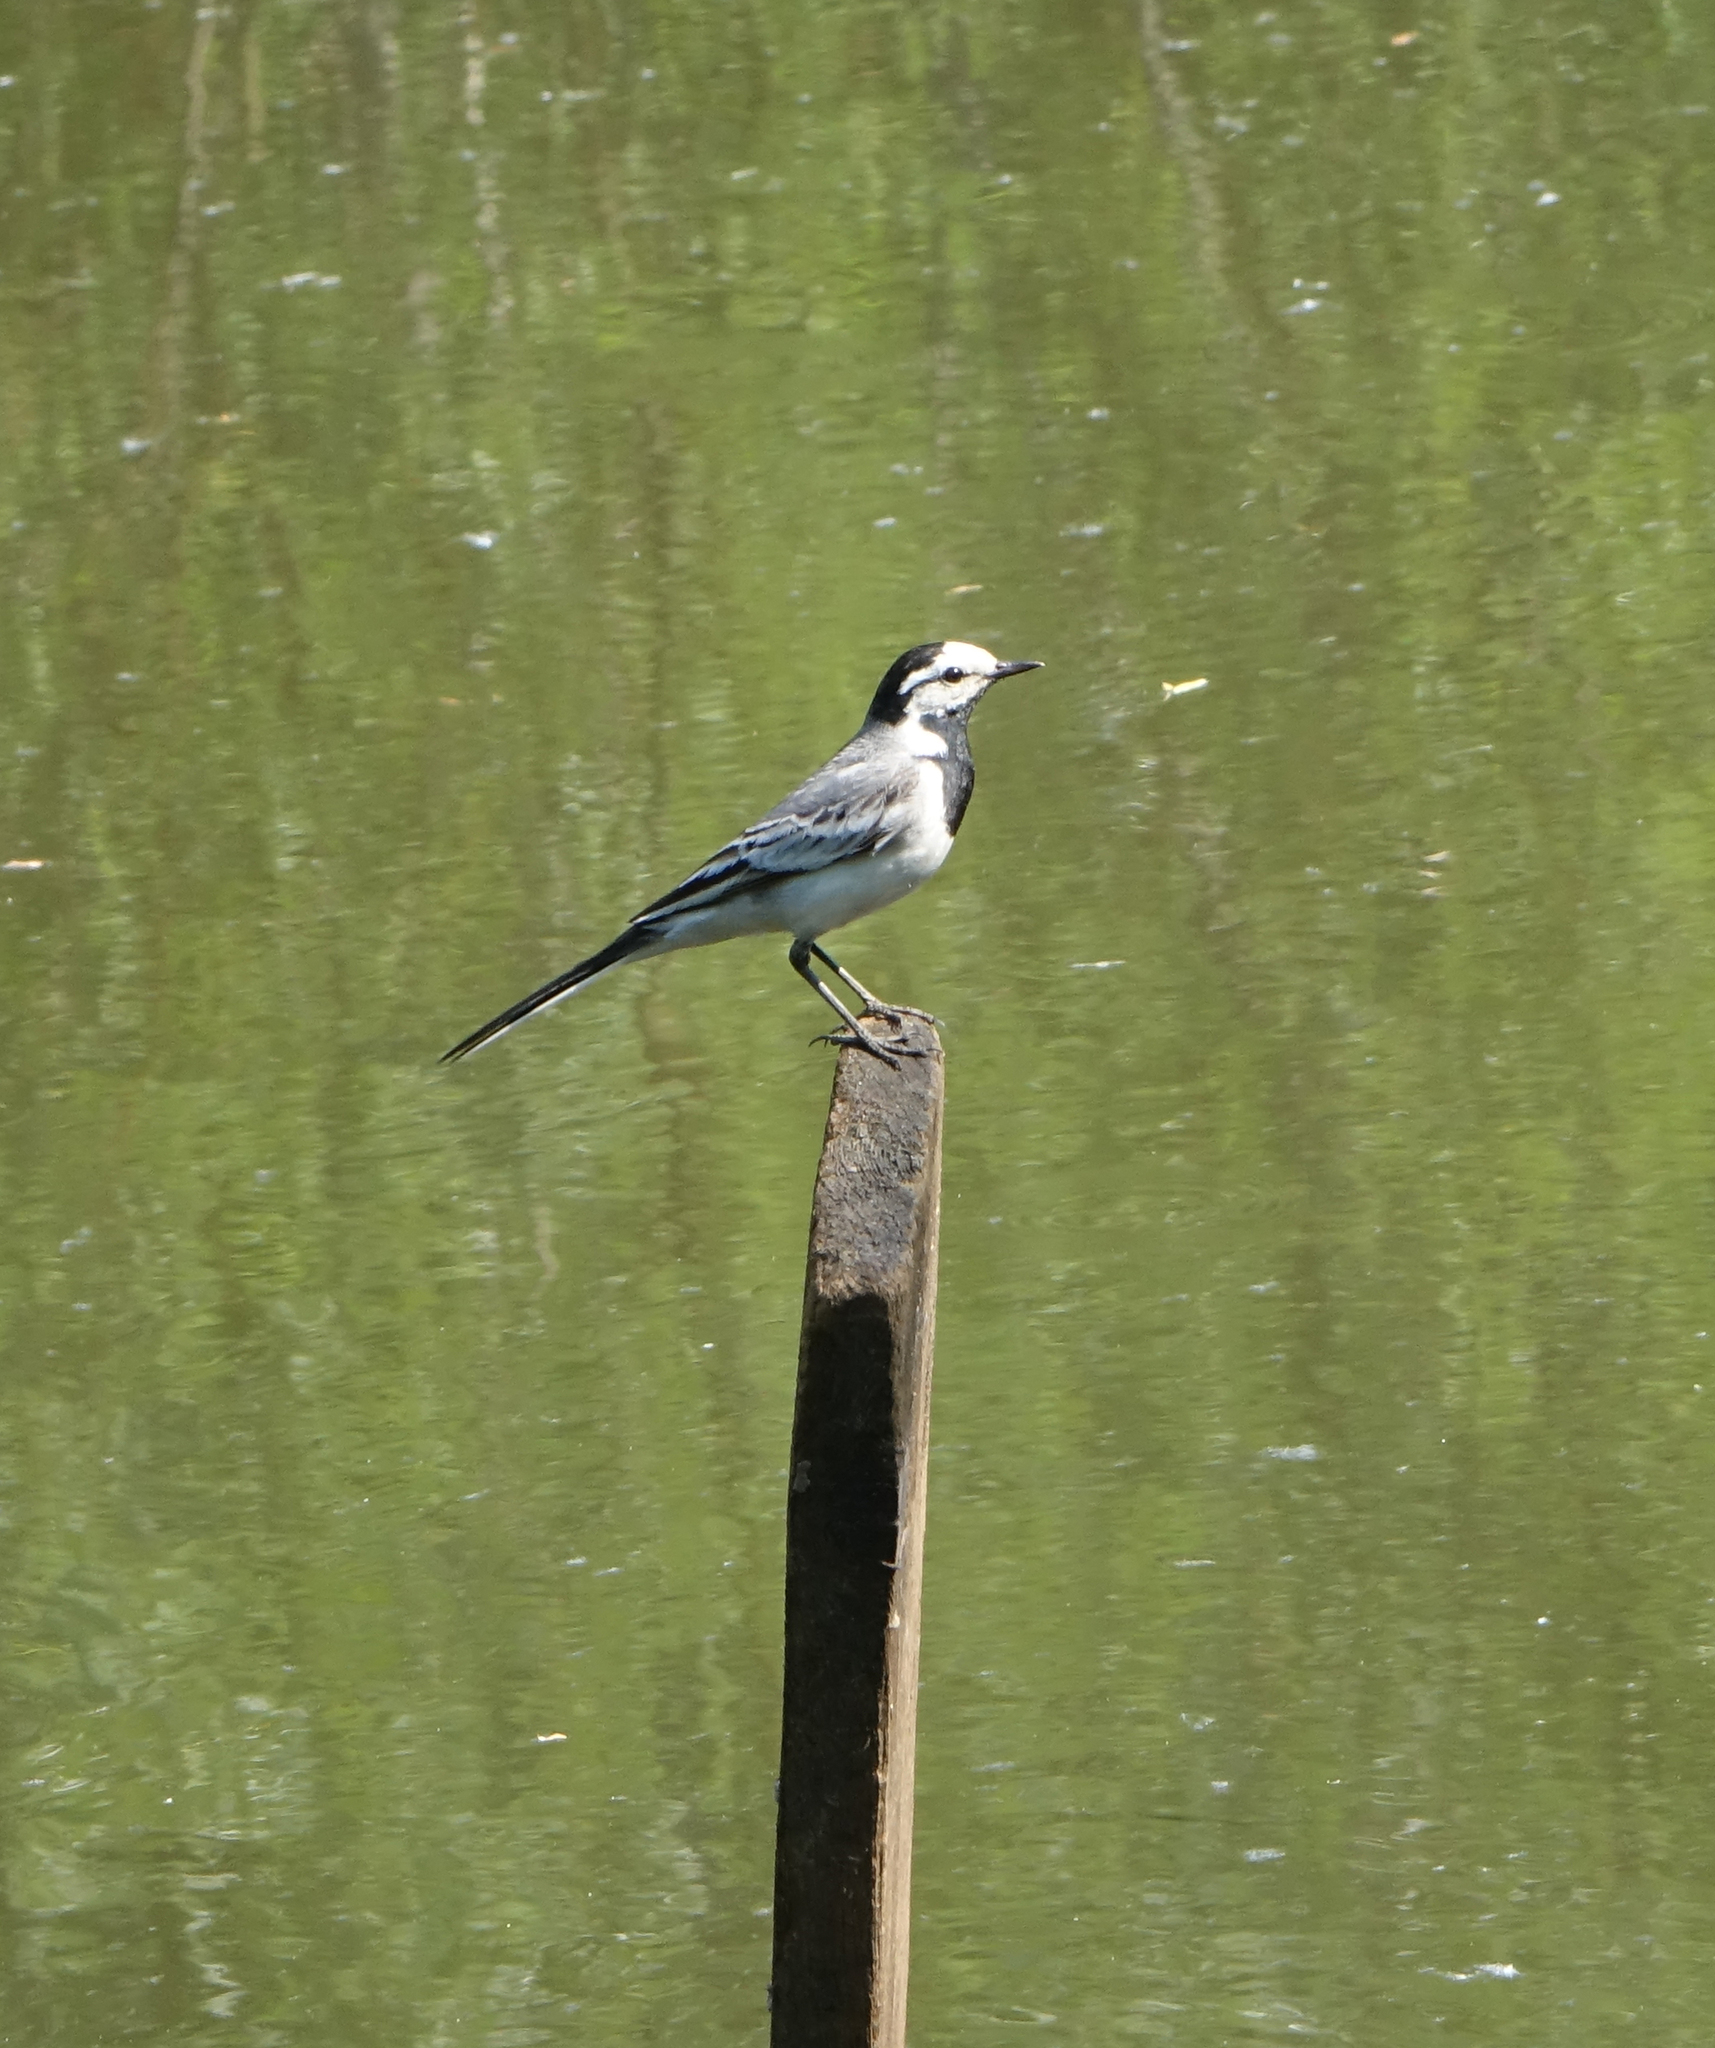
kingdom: Animalia
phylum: Chordata
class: Aves
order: Passeriformes
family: Motacillidae
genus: Motacilla
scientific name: Motacilla alba
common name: White wagtail
